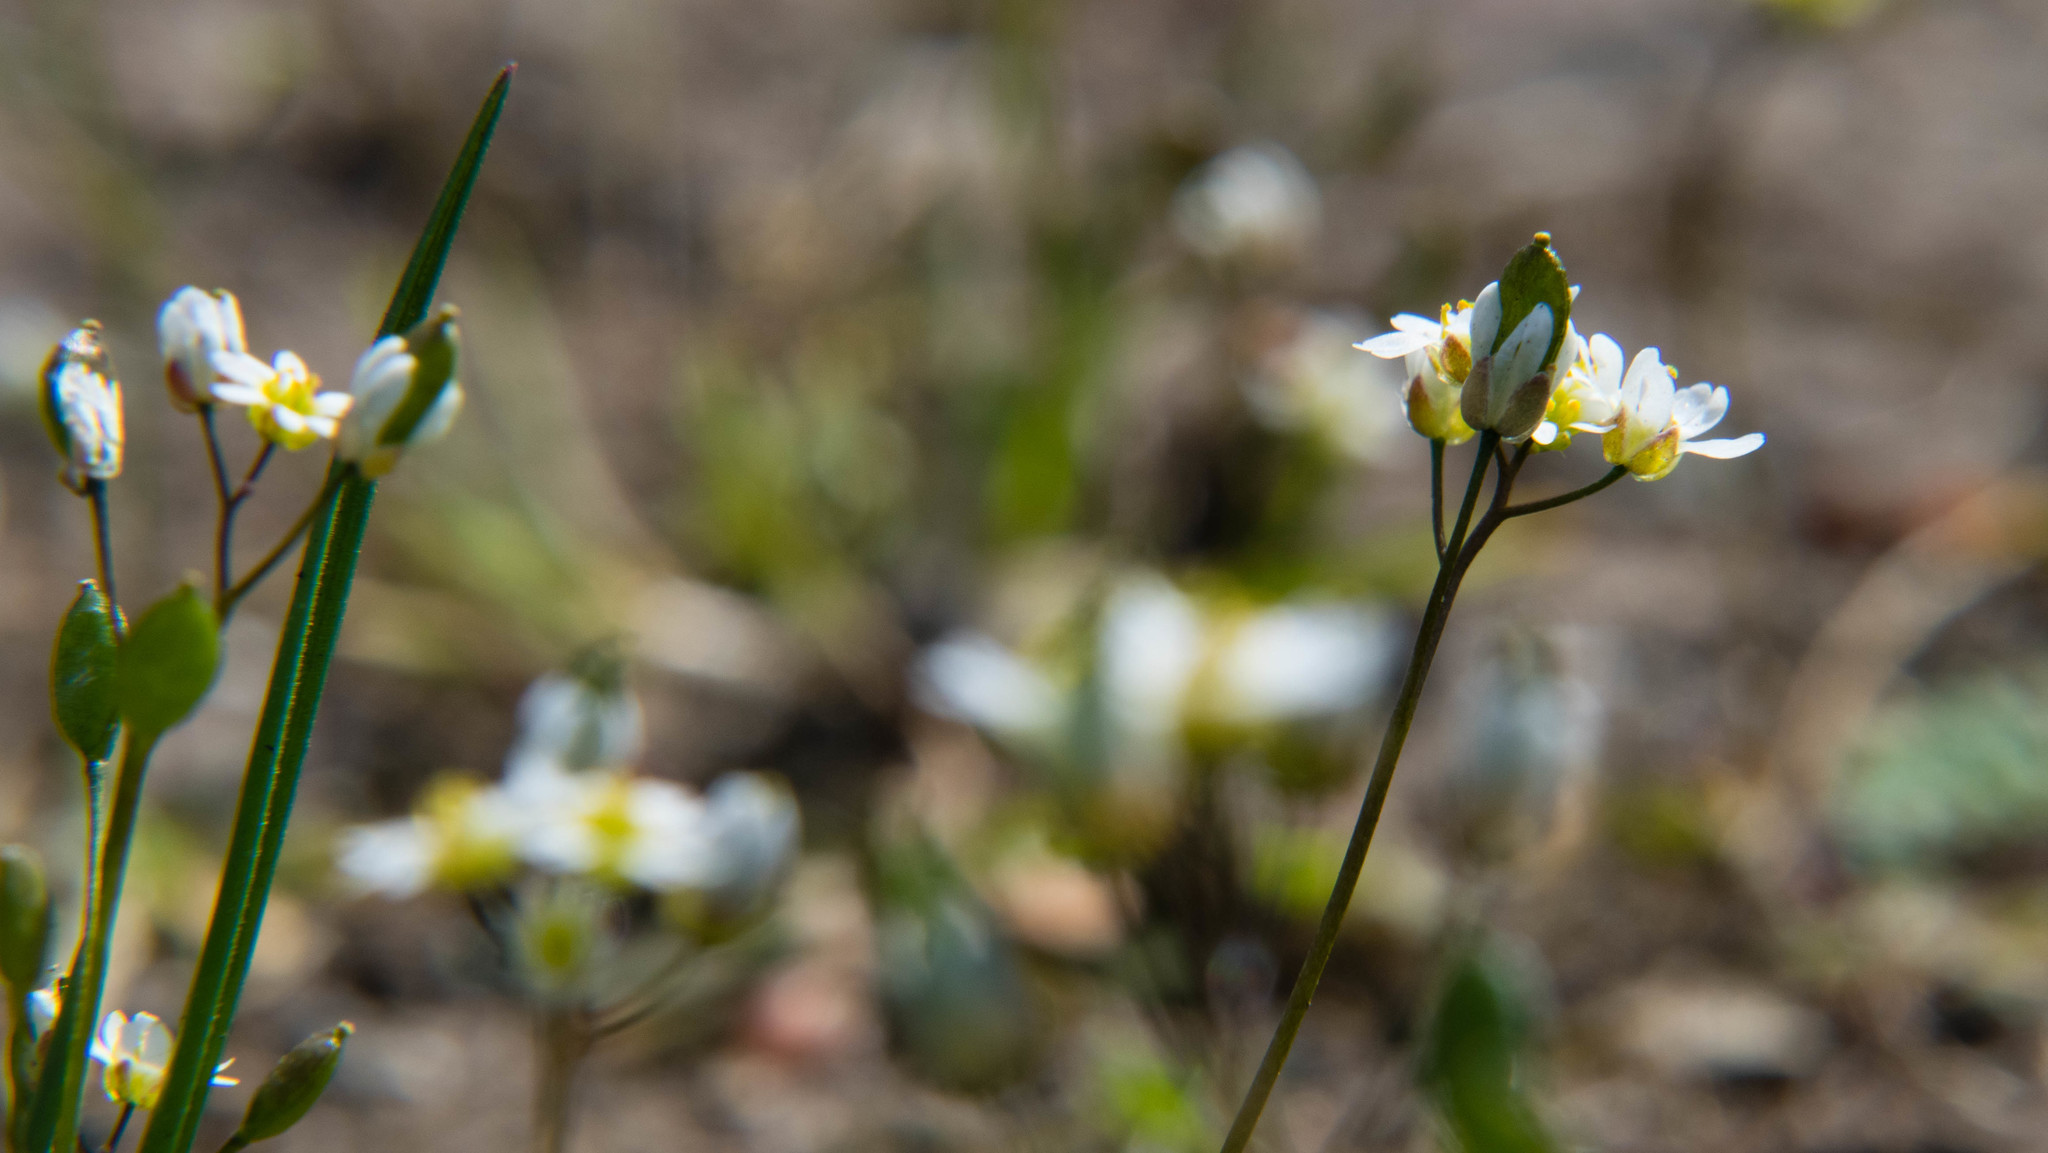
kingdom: Plantae
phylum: Tracheophyta
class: Magnoliopsida
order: Brassicales
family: Brassicaceae
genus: Draba
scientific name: Draba verna
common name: Spring draba
